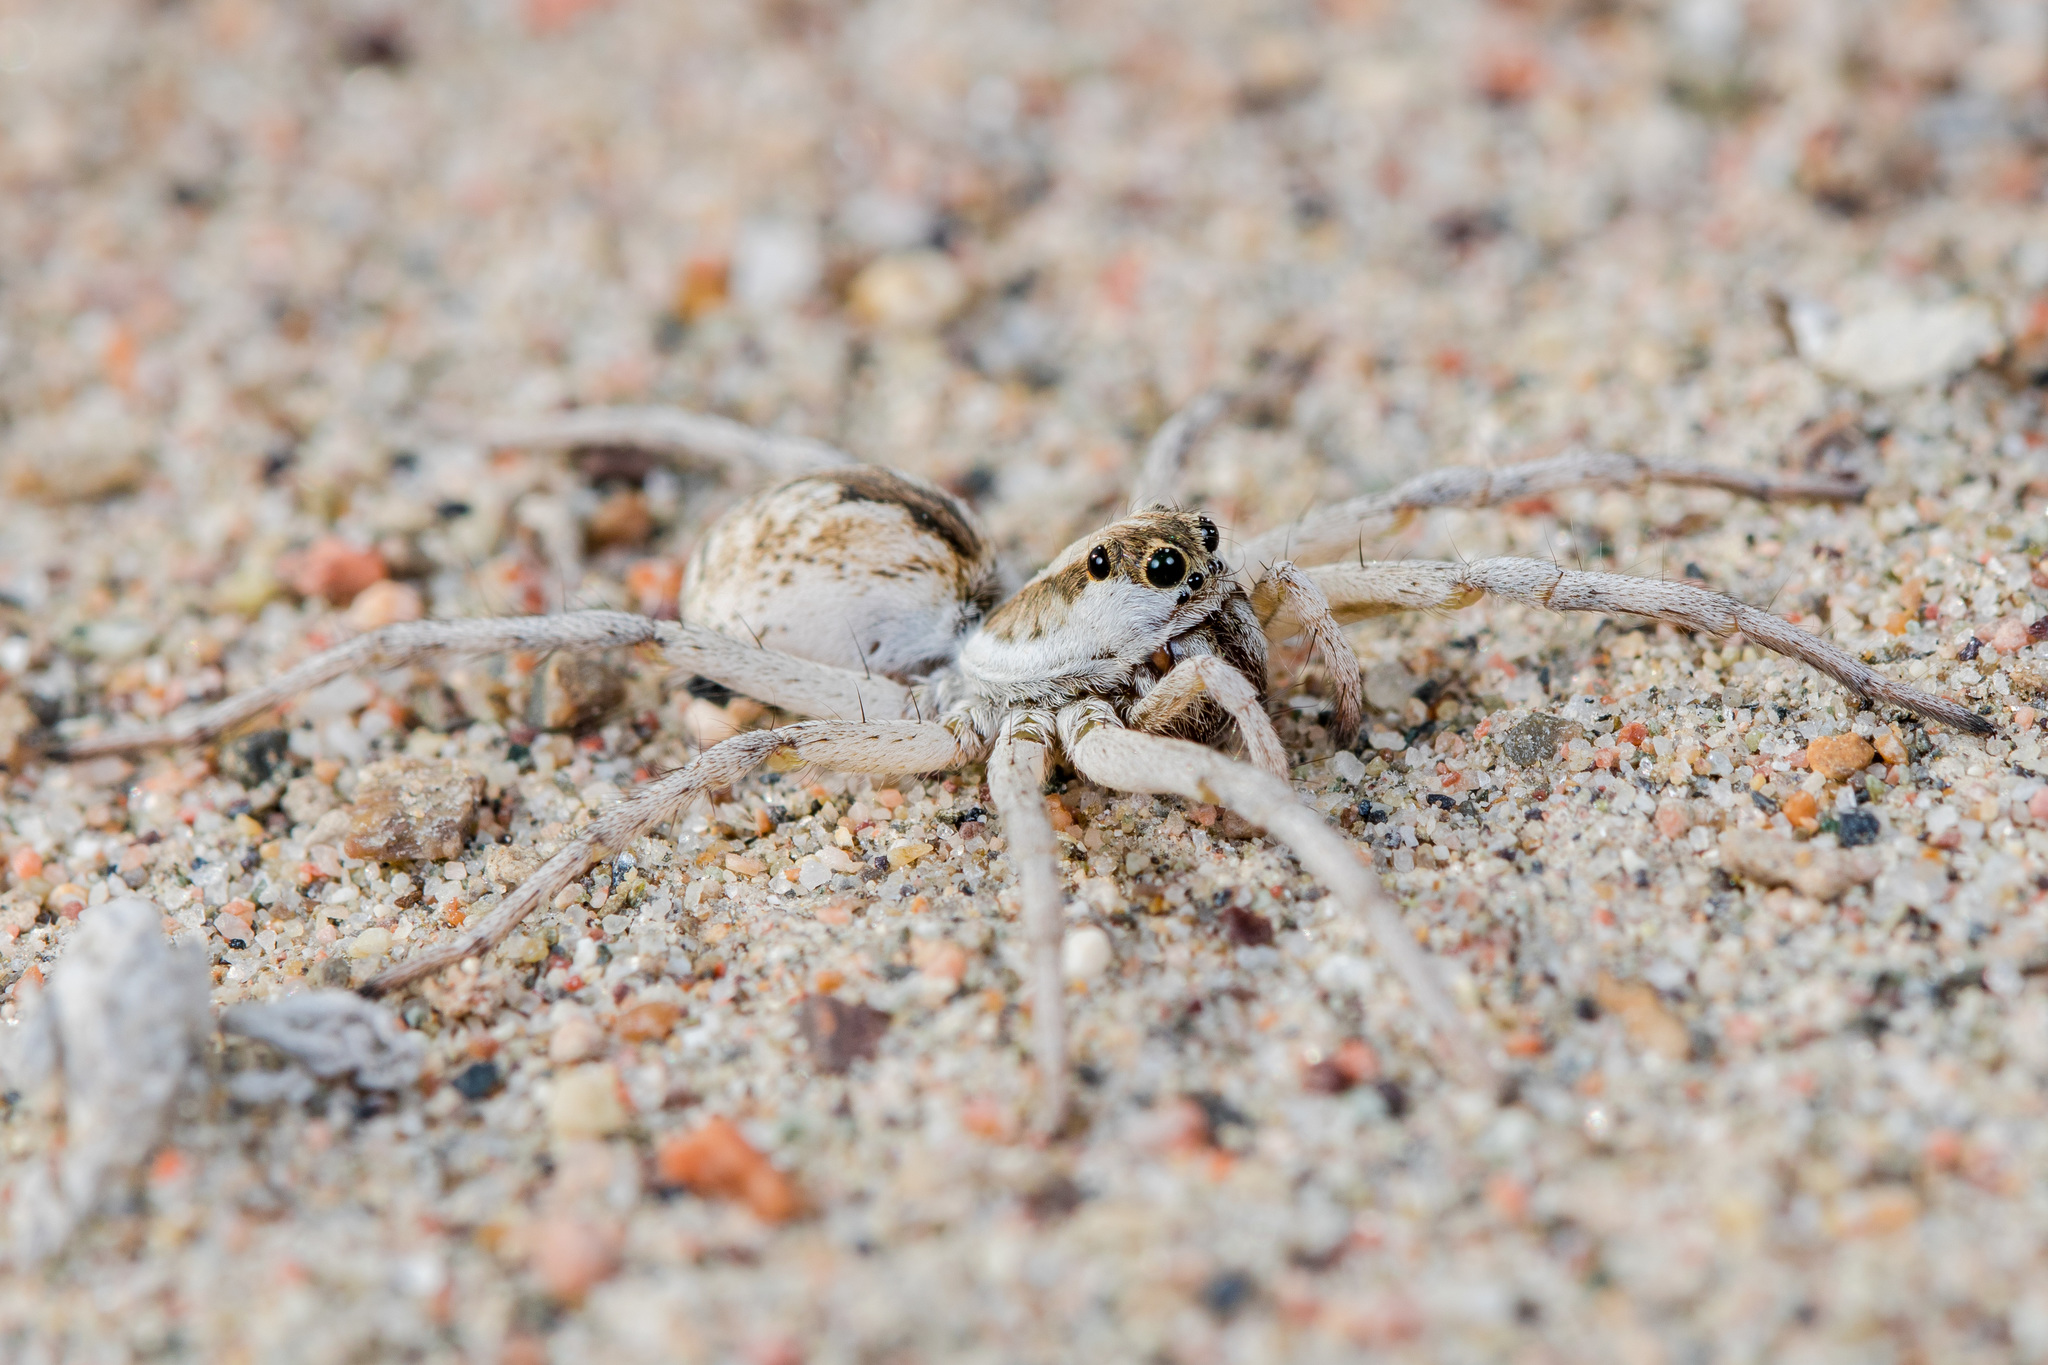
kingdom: Animalia
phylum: Arthropoda
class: Arachnida
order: Araneae
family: Lycosidae
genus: Karakumosa
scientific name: Karakumosa alticeps
